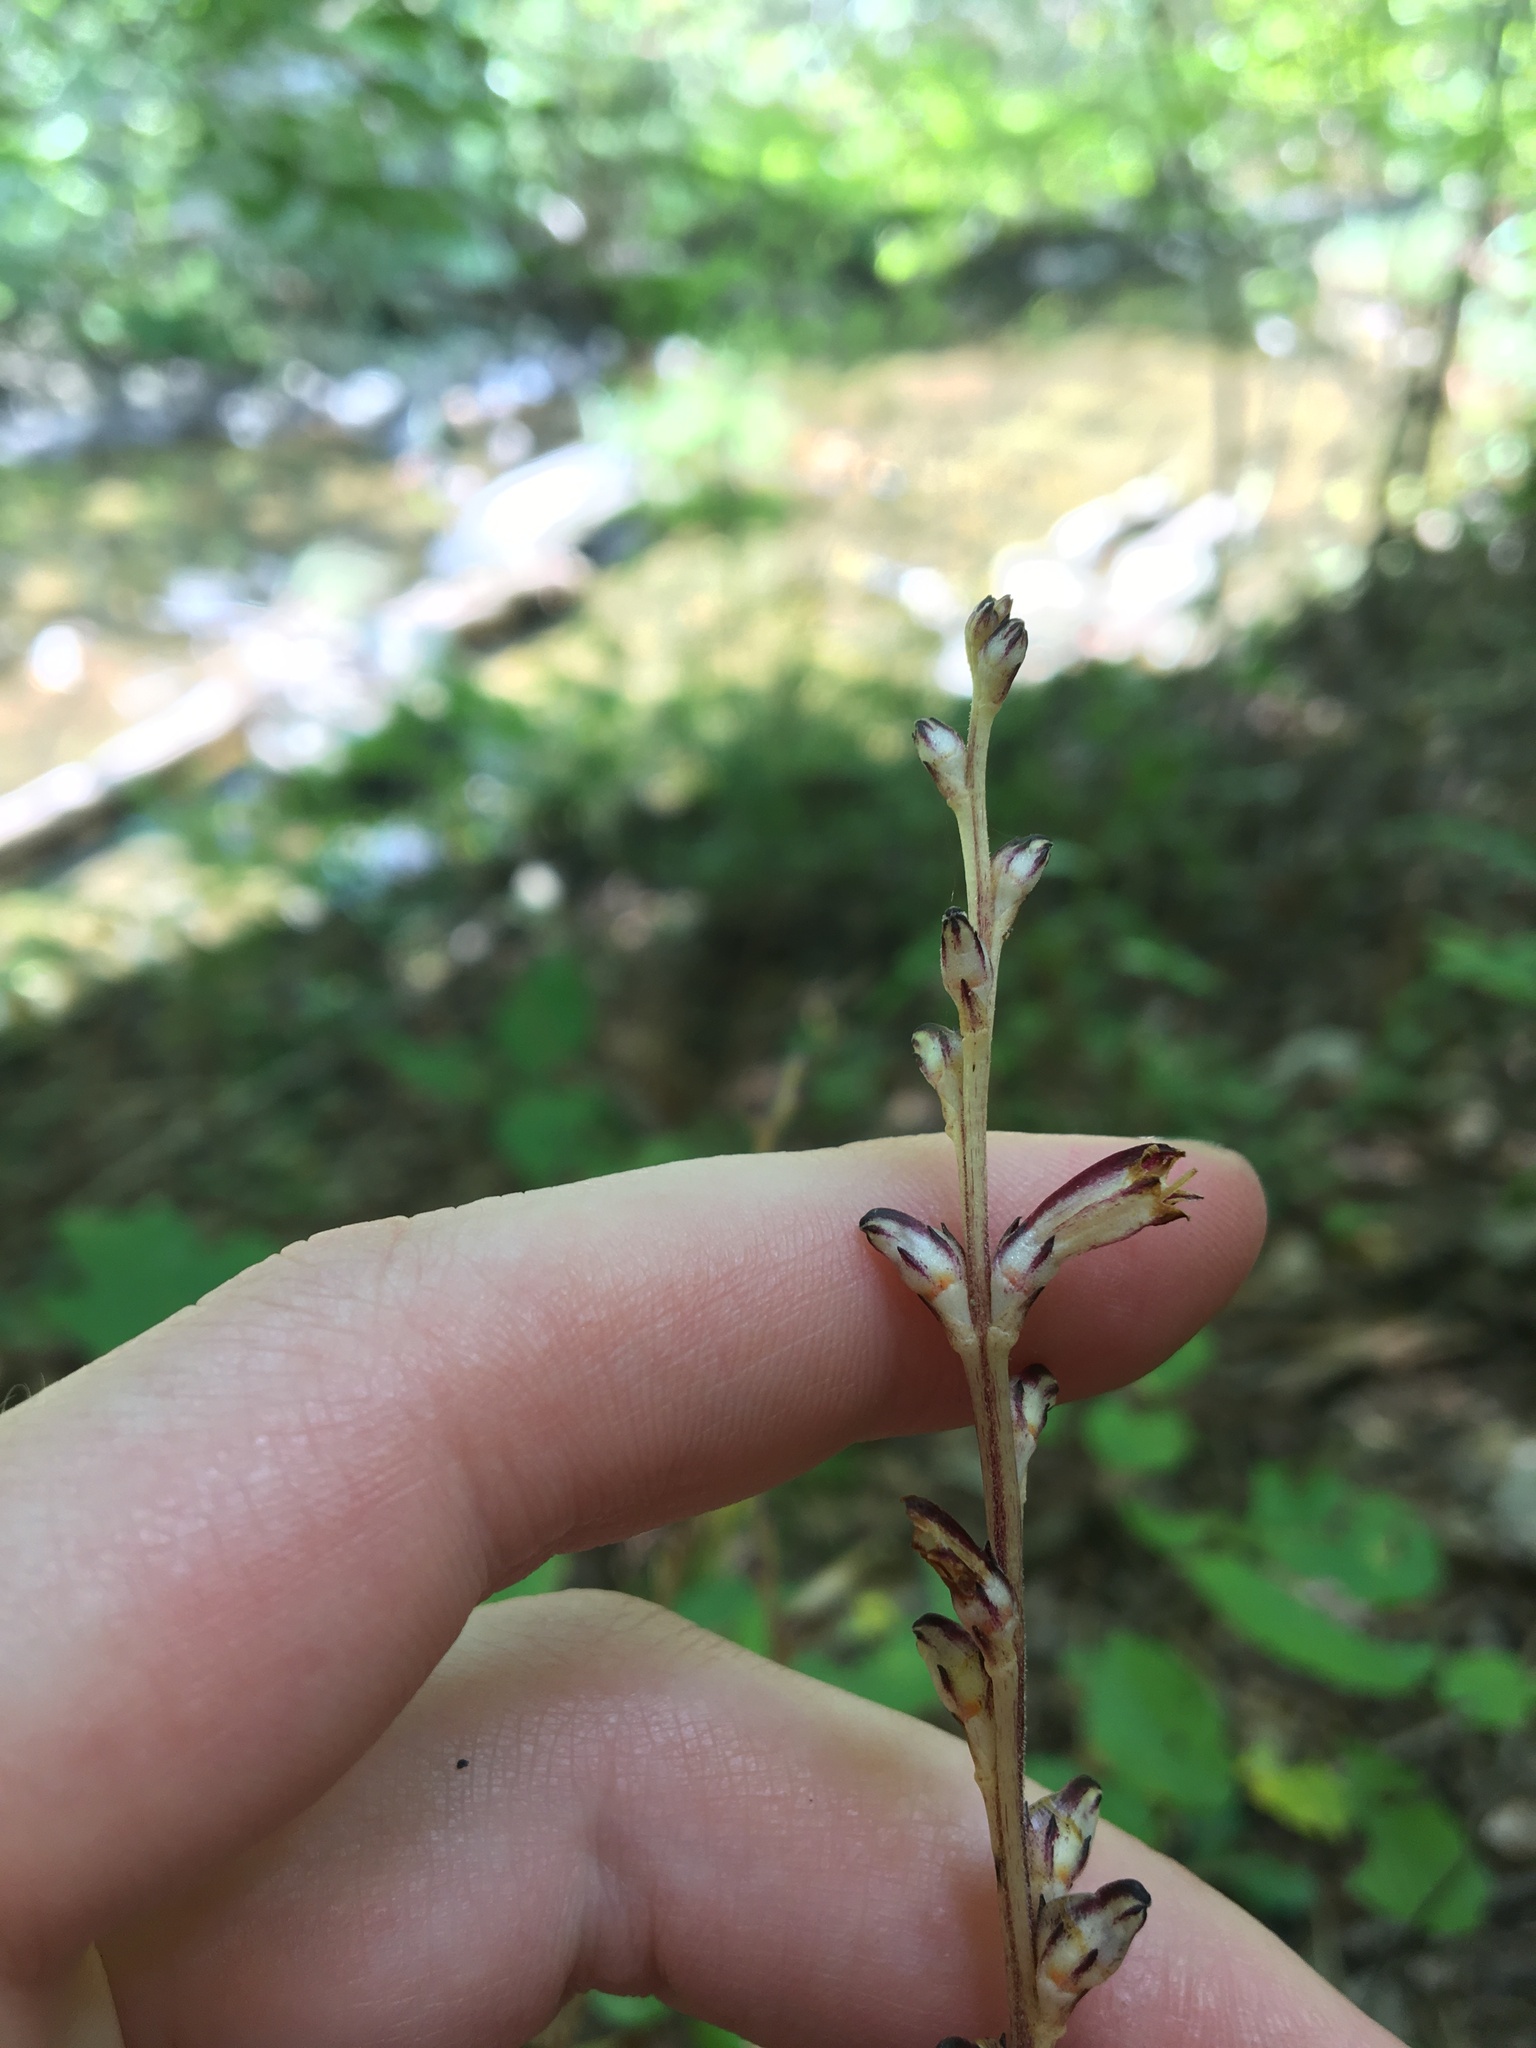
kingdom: Plantae
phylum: Tracheophyta
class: Magnoliopsida
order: Lamiales
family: Orobanchaceae
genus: Epifagus
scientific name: Epifagus virginiana
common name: Beechdrops
